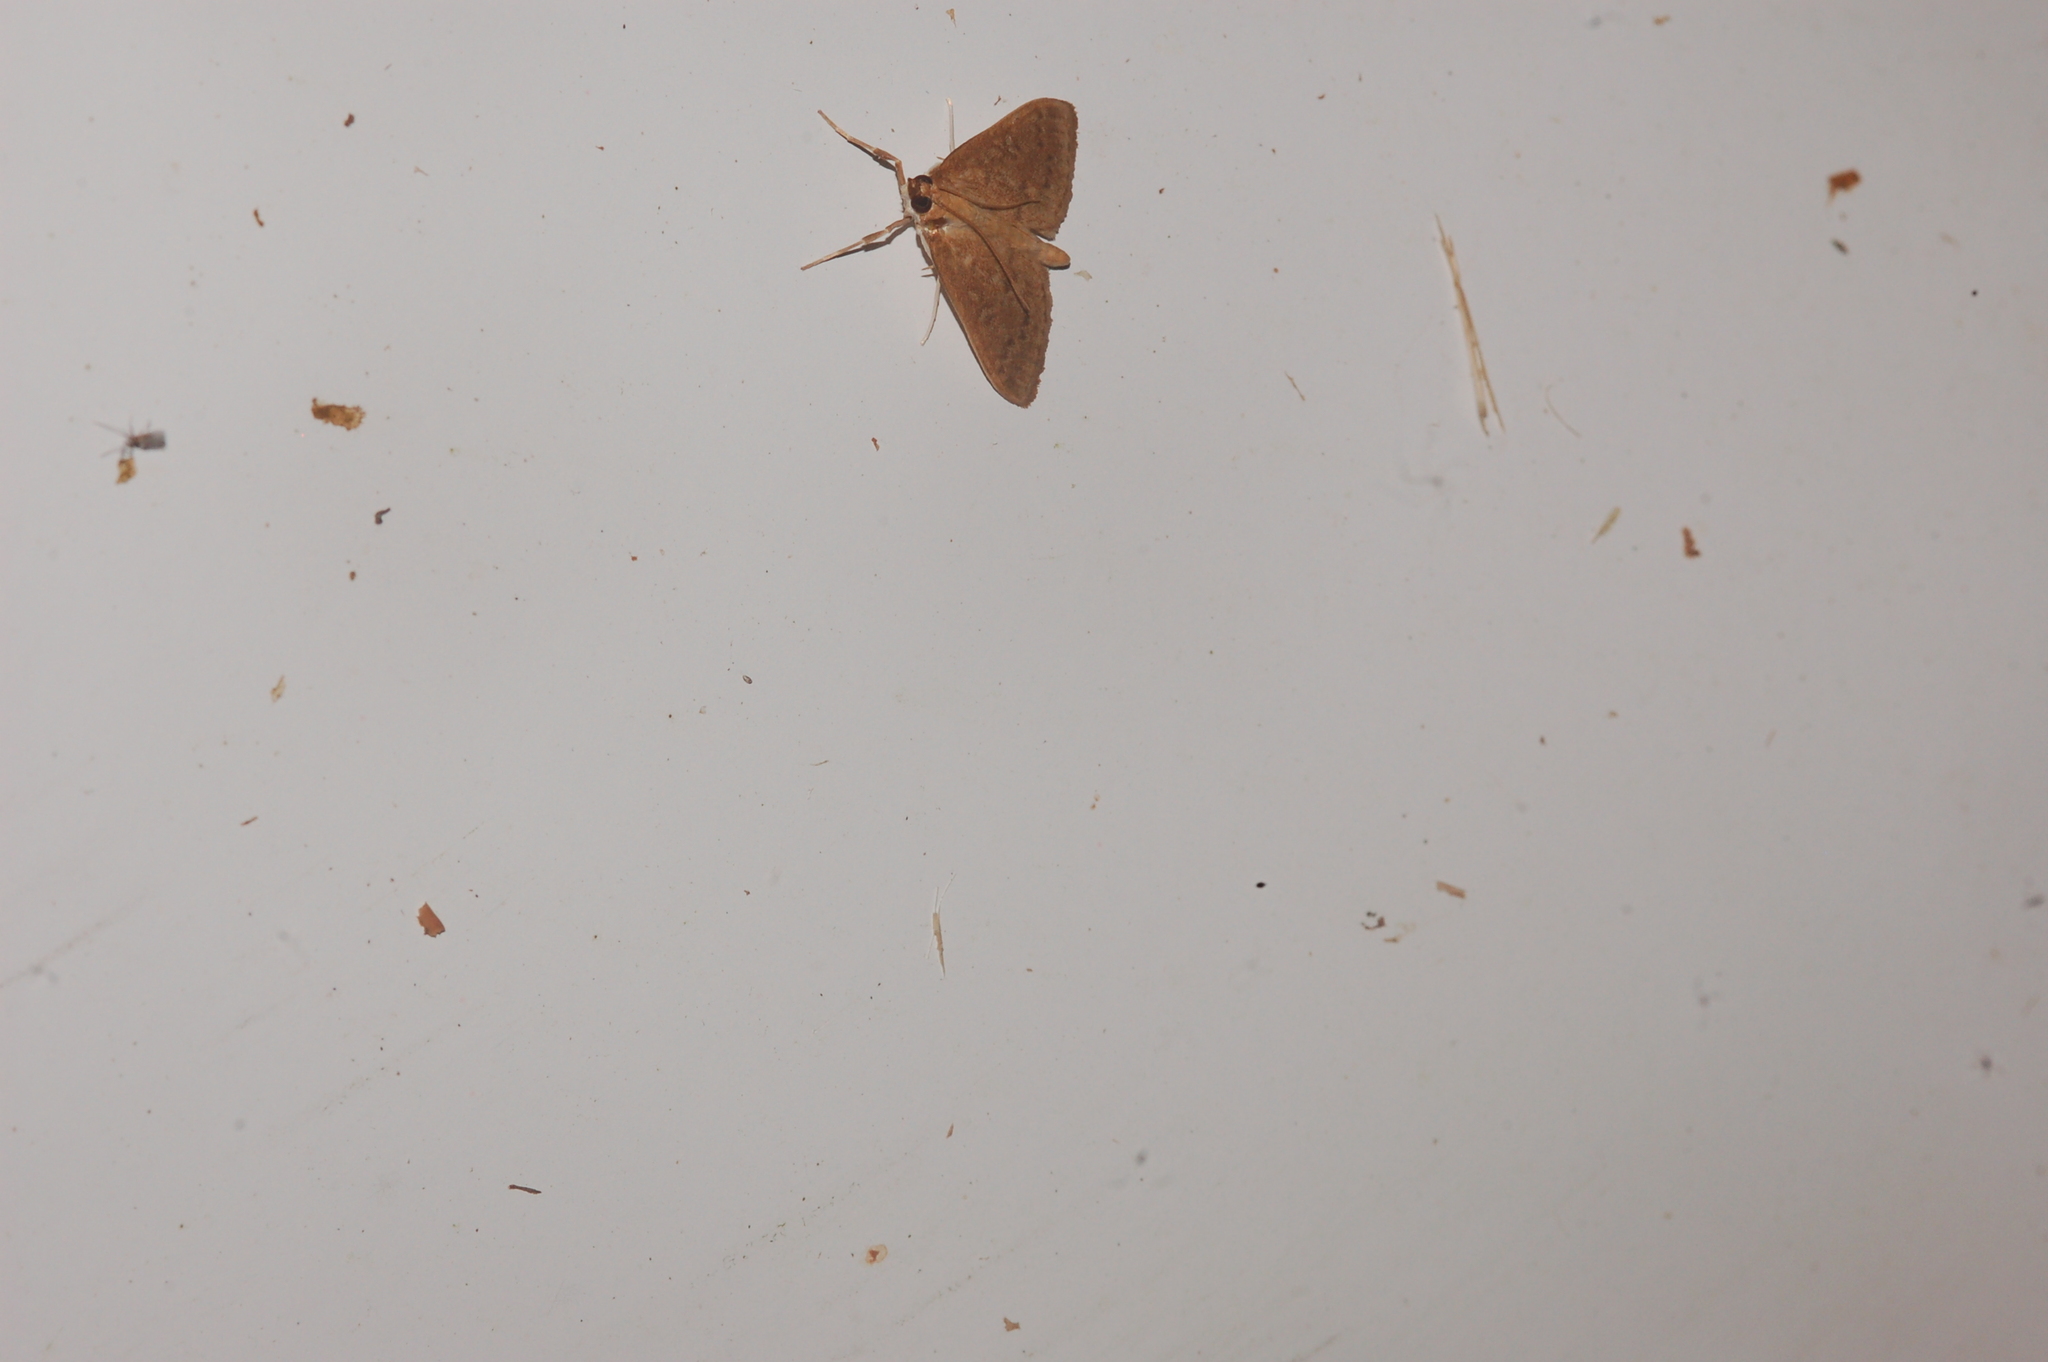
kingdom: Animalia
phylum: Arthropoda
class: Insecta
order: Lepidoptera
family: Crambidae
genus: Anania
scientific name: Anania Framinghamia helvalis
